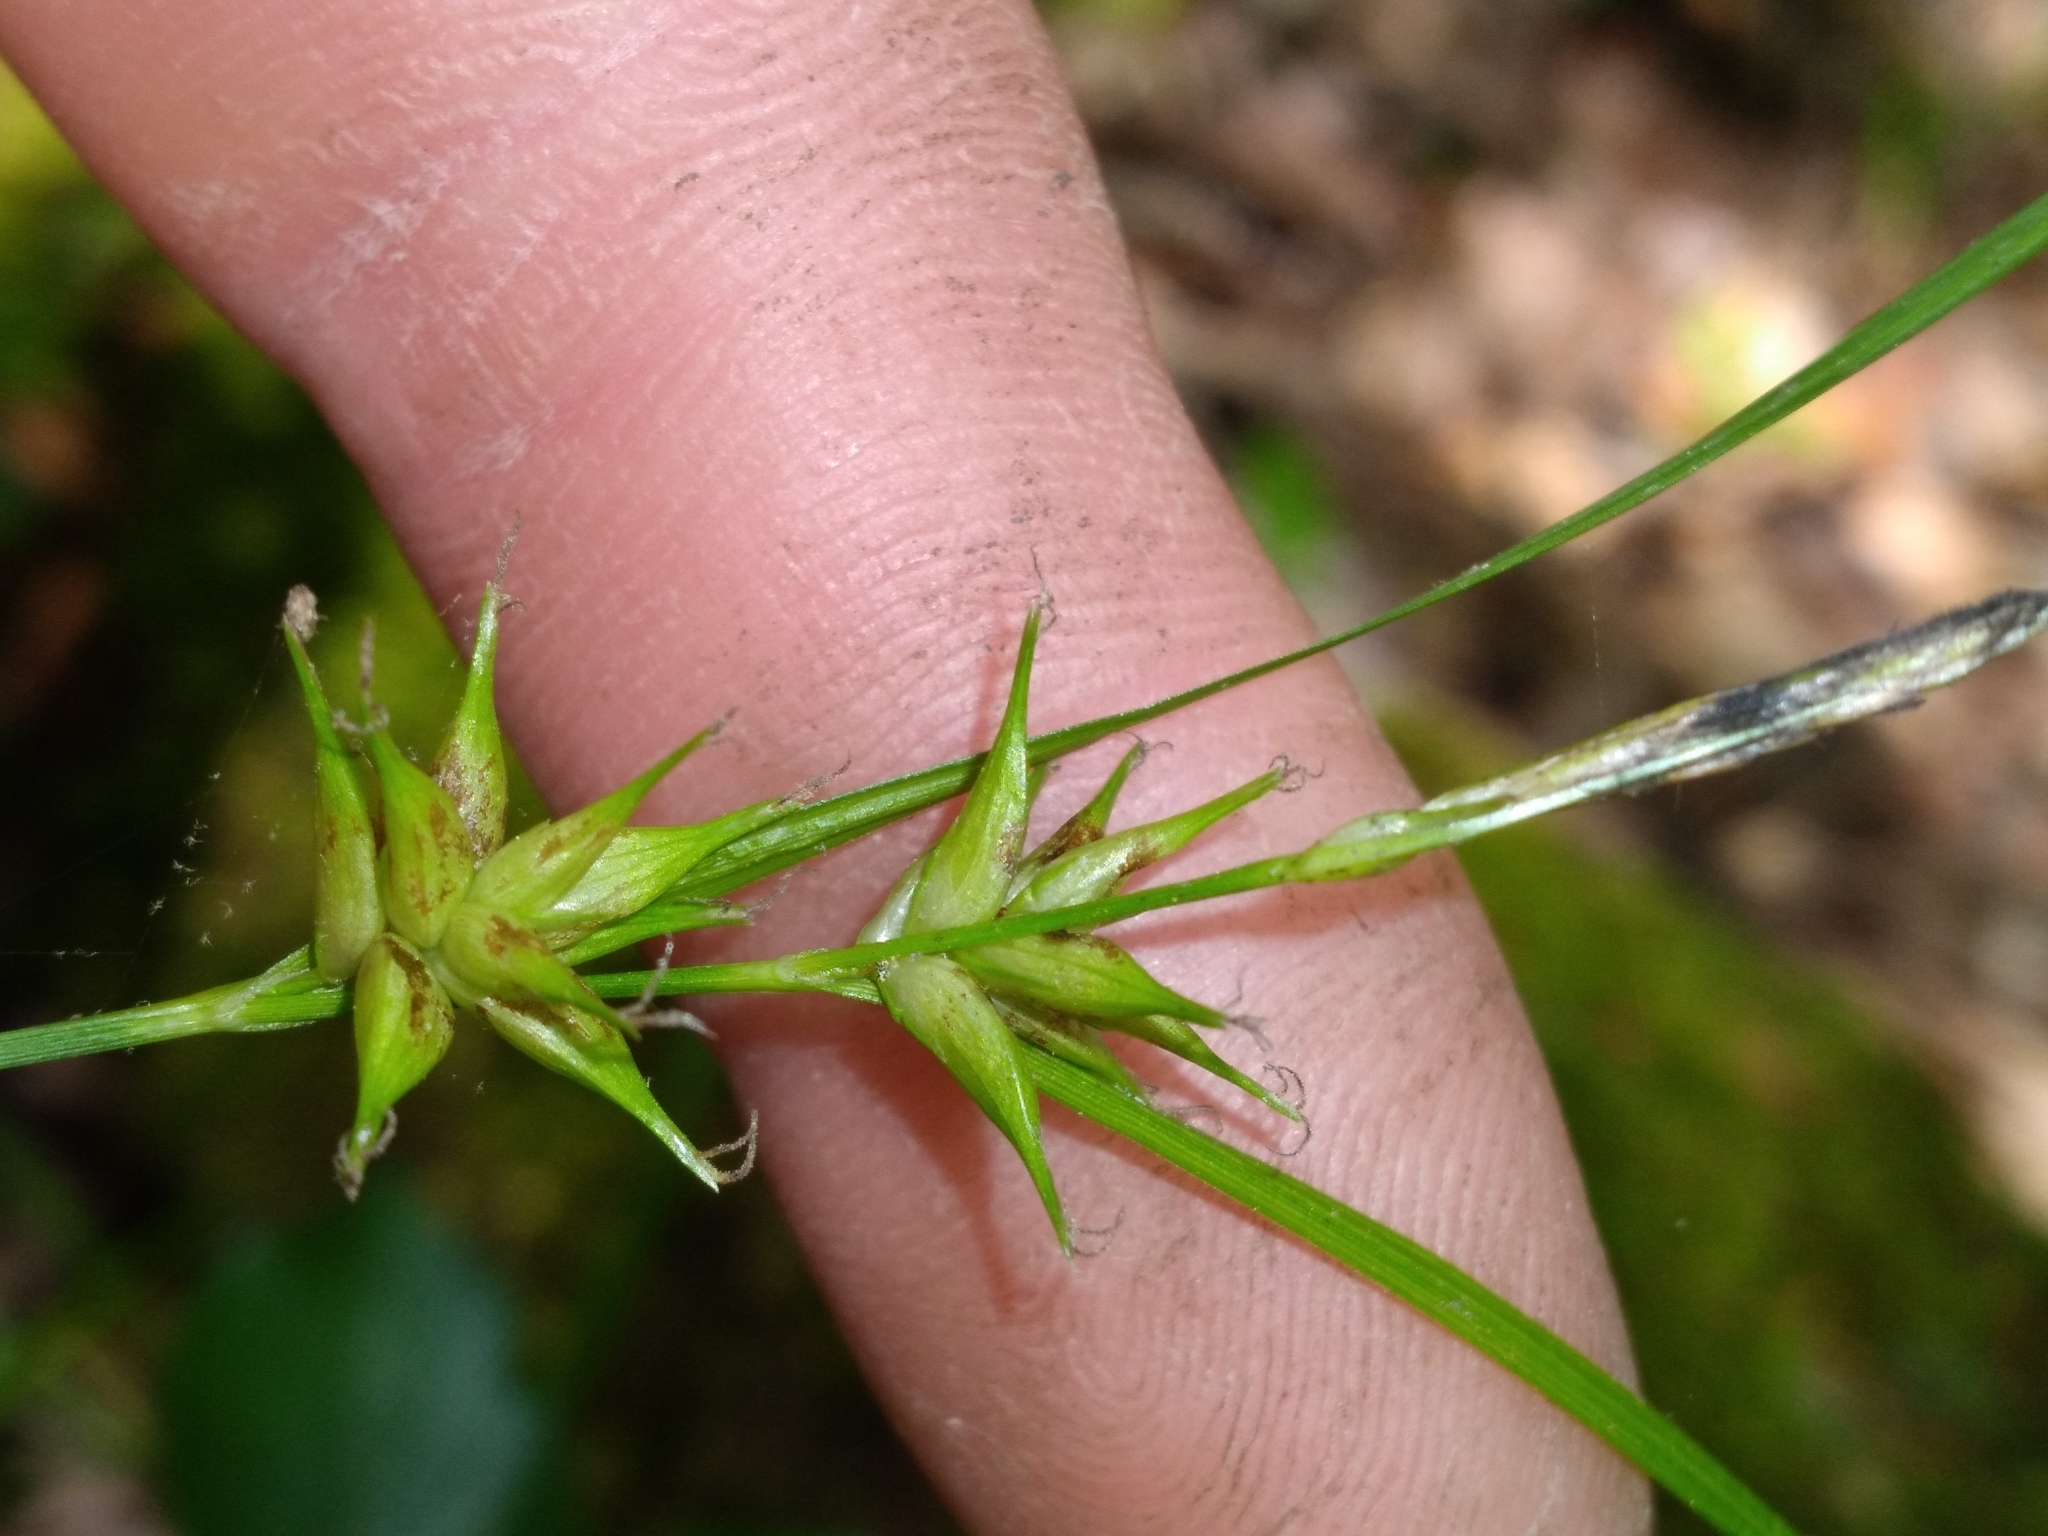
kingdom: Plantae
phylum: Tracheophyta
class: Liliopsida
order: Poales
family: Cyperaceae
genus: Carex
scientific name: Carex elliottii
